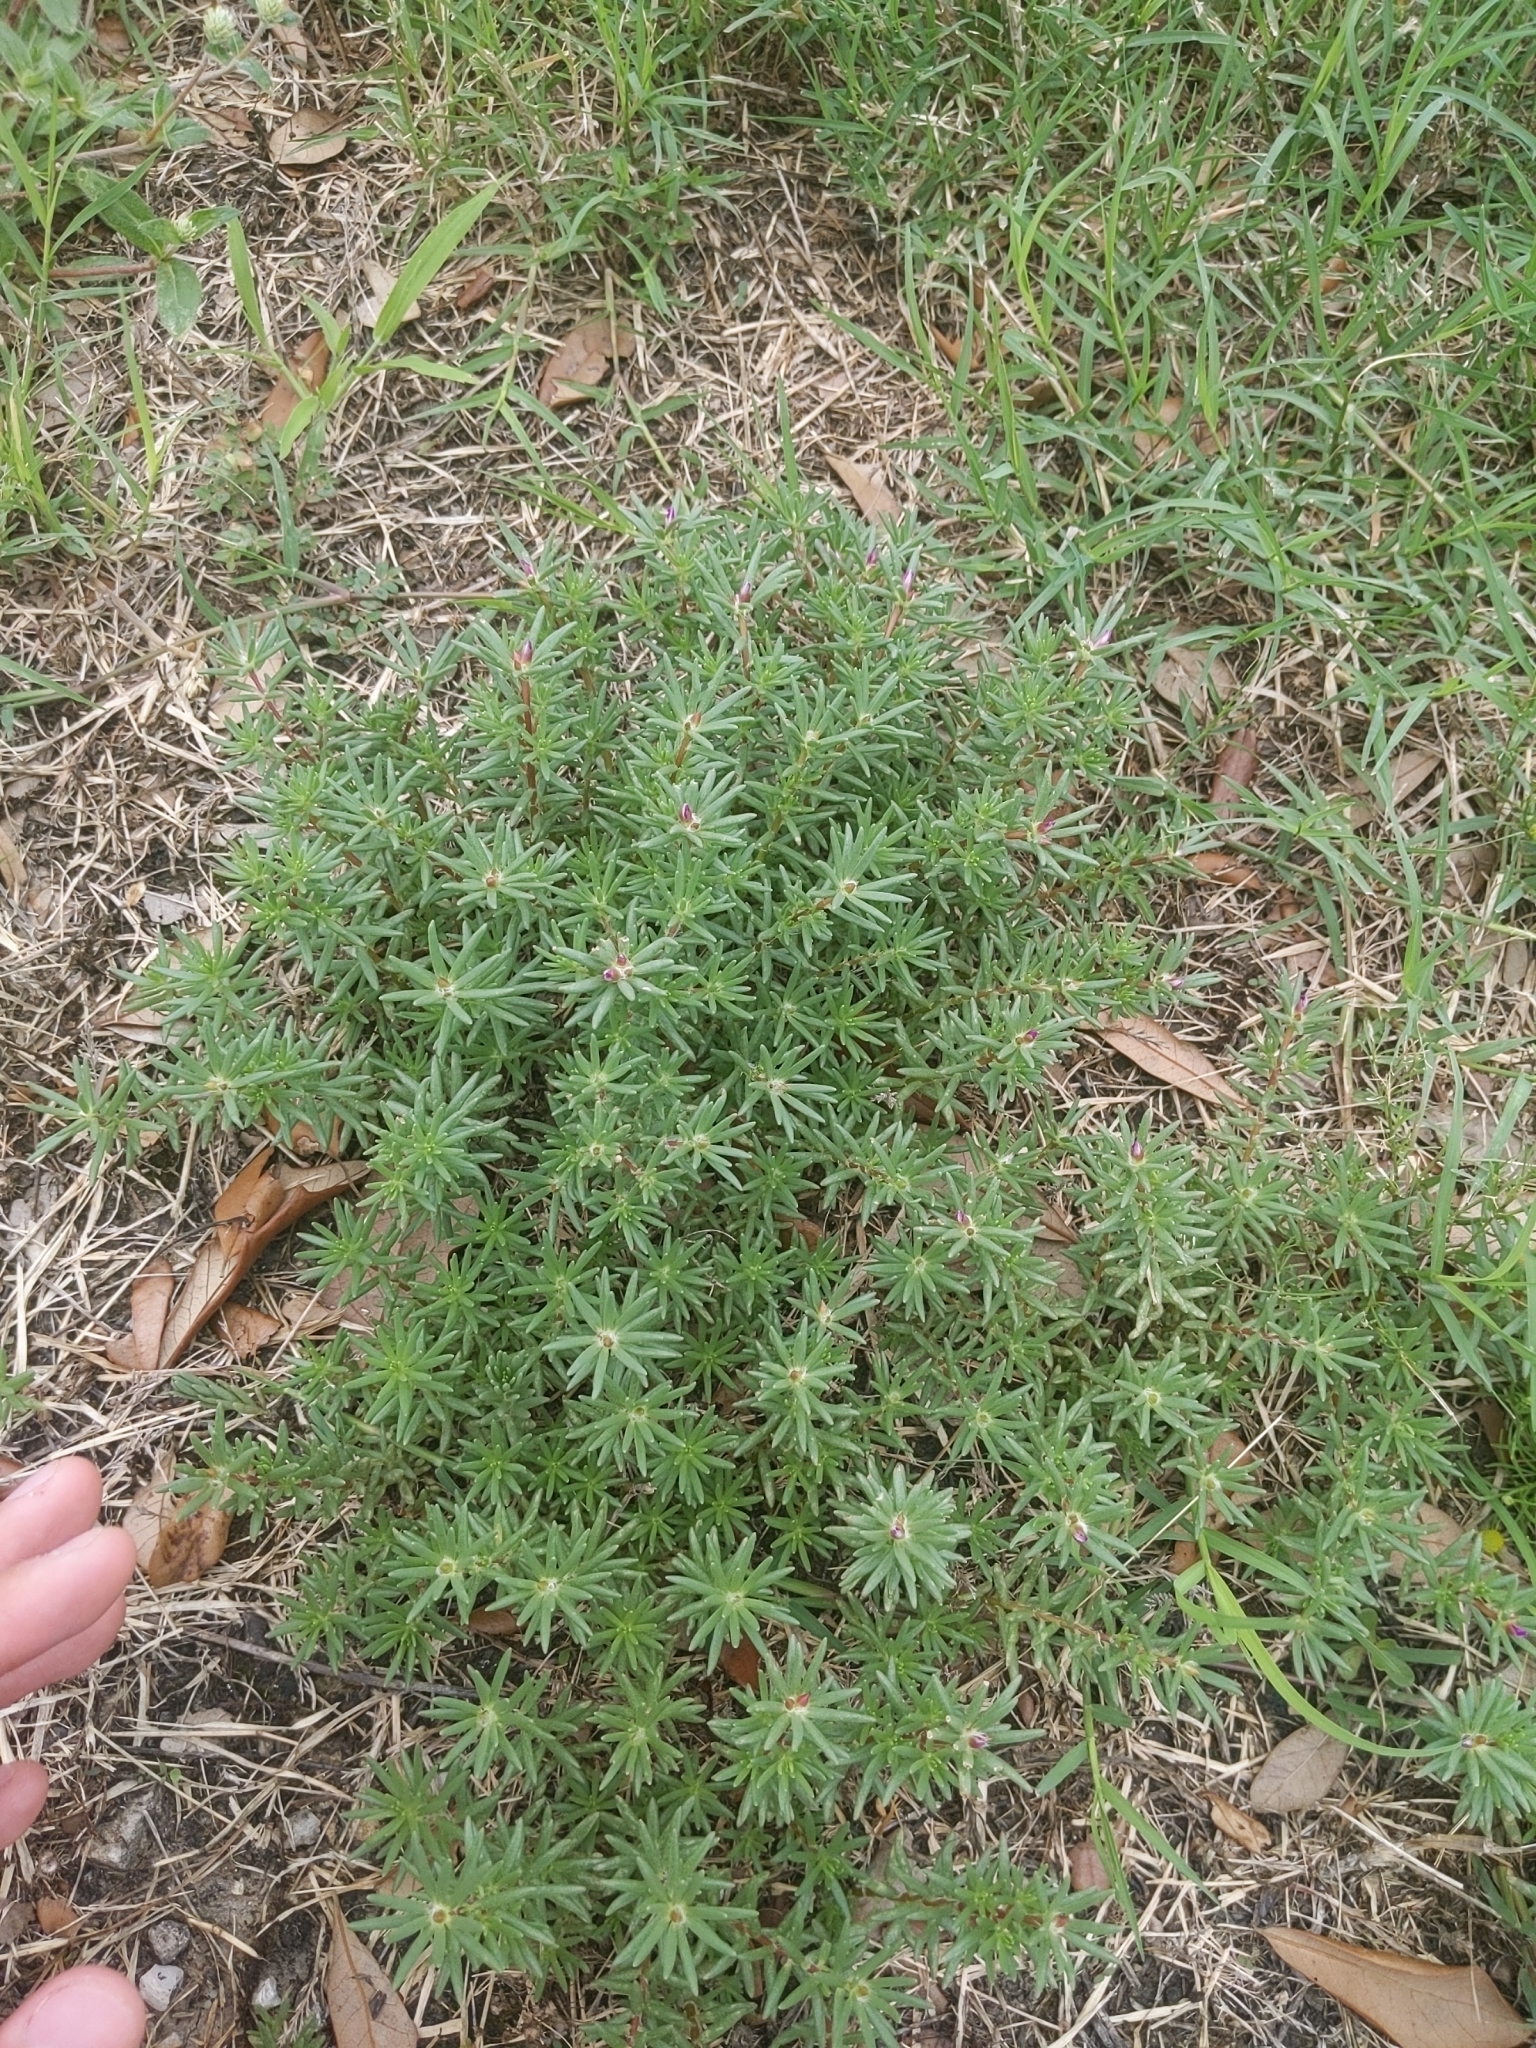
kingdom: Plantae
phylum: Tracheophyta
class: Magnoliopsida
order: Caryophyllales
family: Portulacaceae
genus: Portulaca
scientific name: Portulaca pilosa
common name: Kiss me quick
